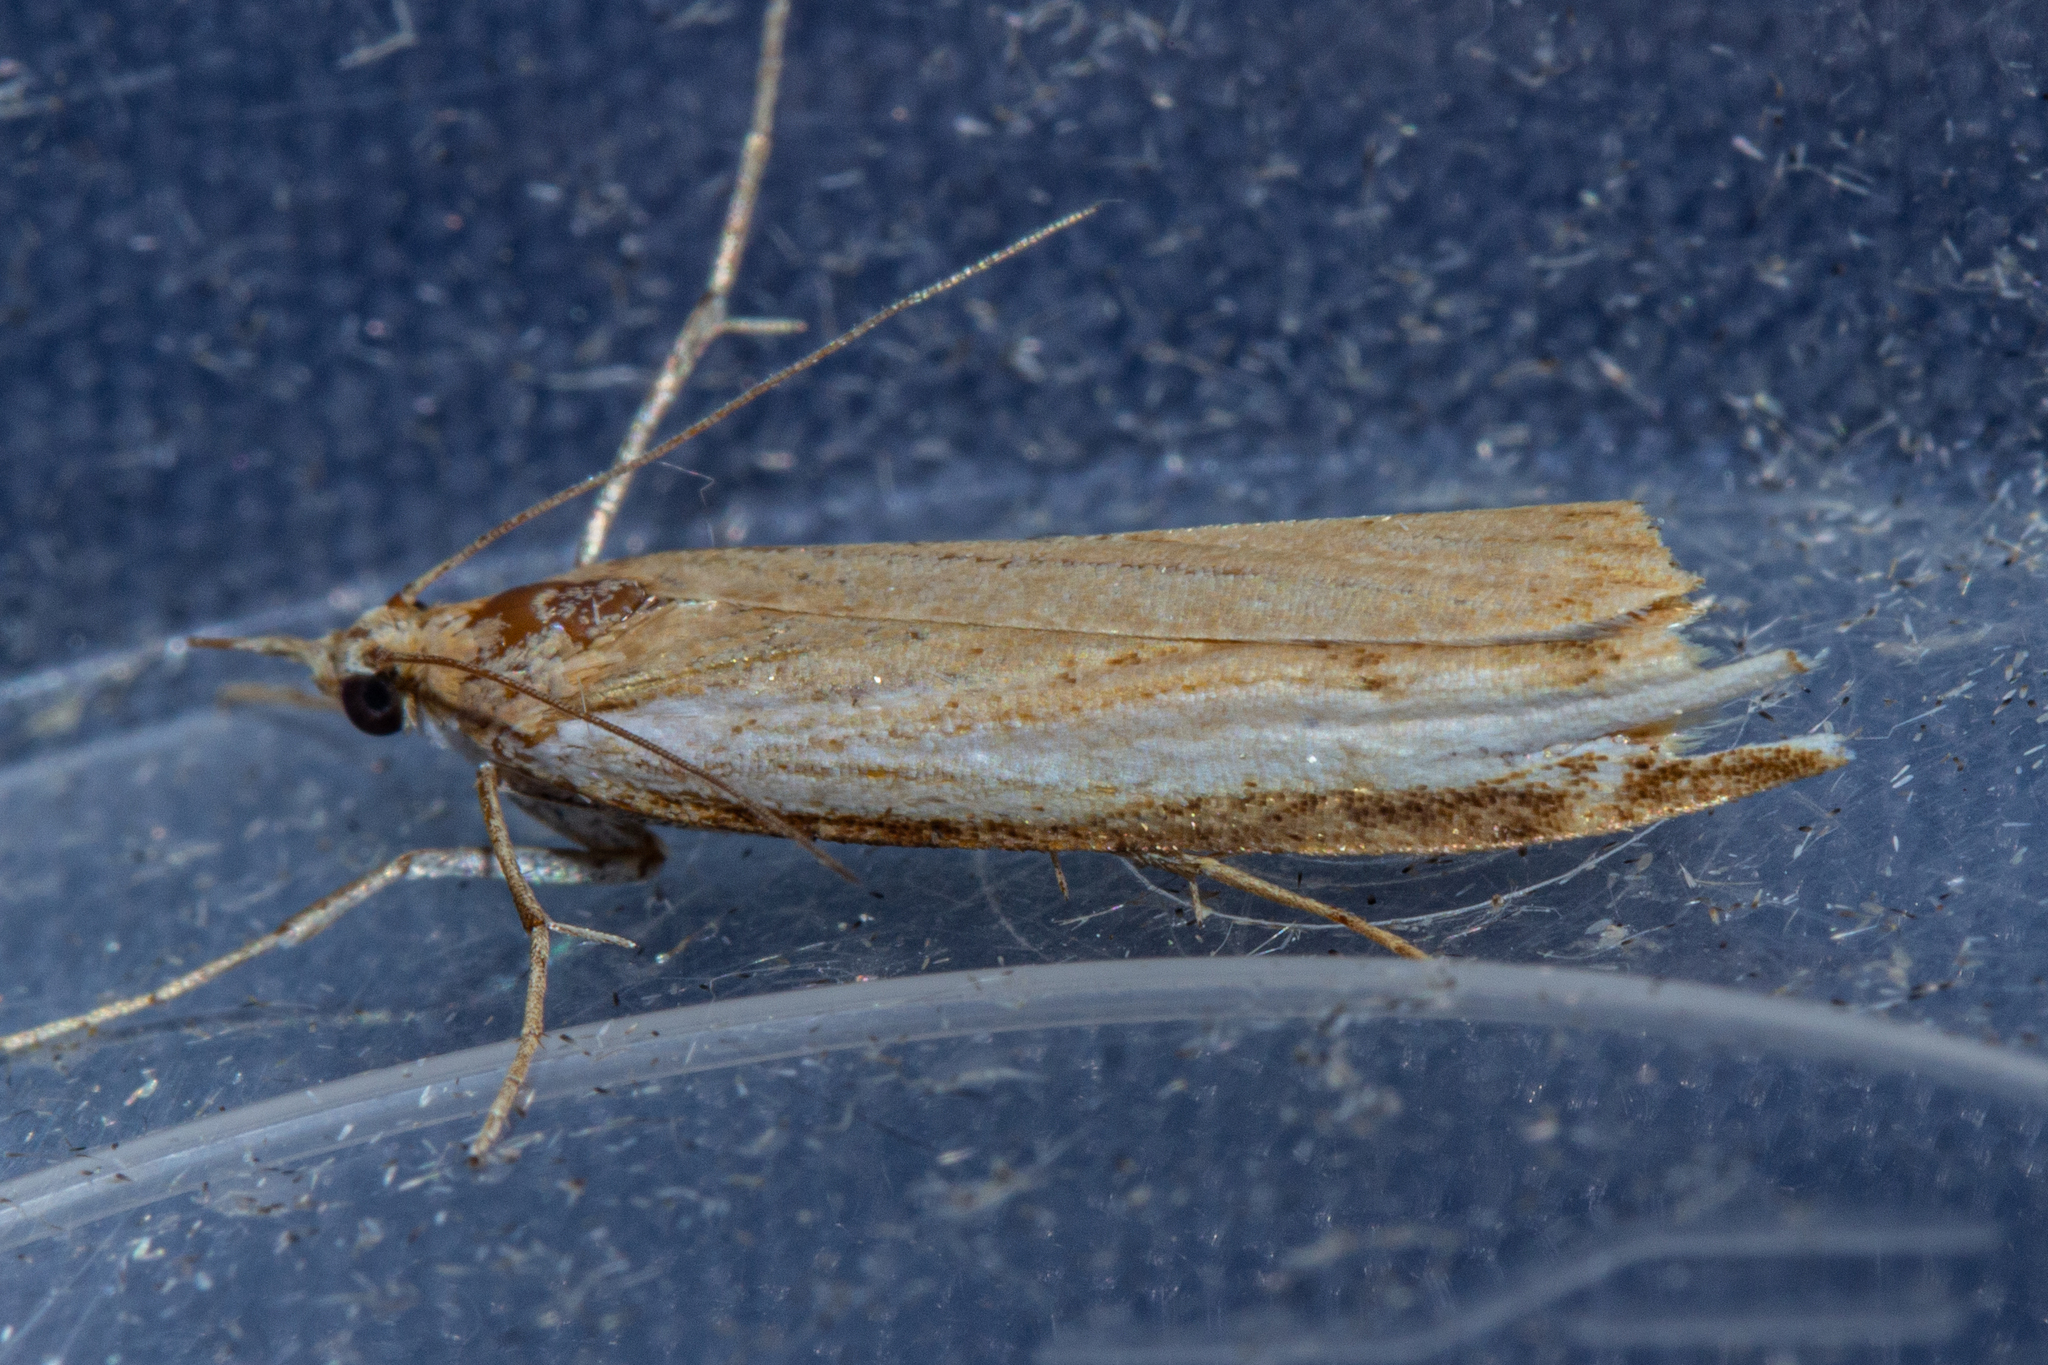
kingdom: Animalia
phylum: Arthropoda
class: Insecta
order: Lepidoptera
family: Crambidae
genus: Orocrambus
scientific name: Orocrambus flexuosellus
